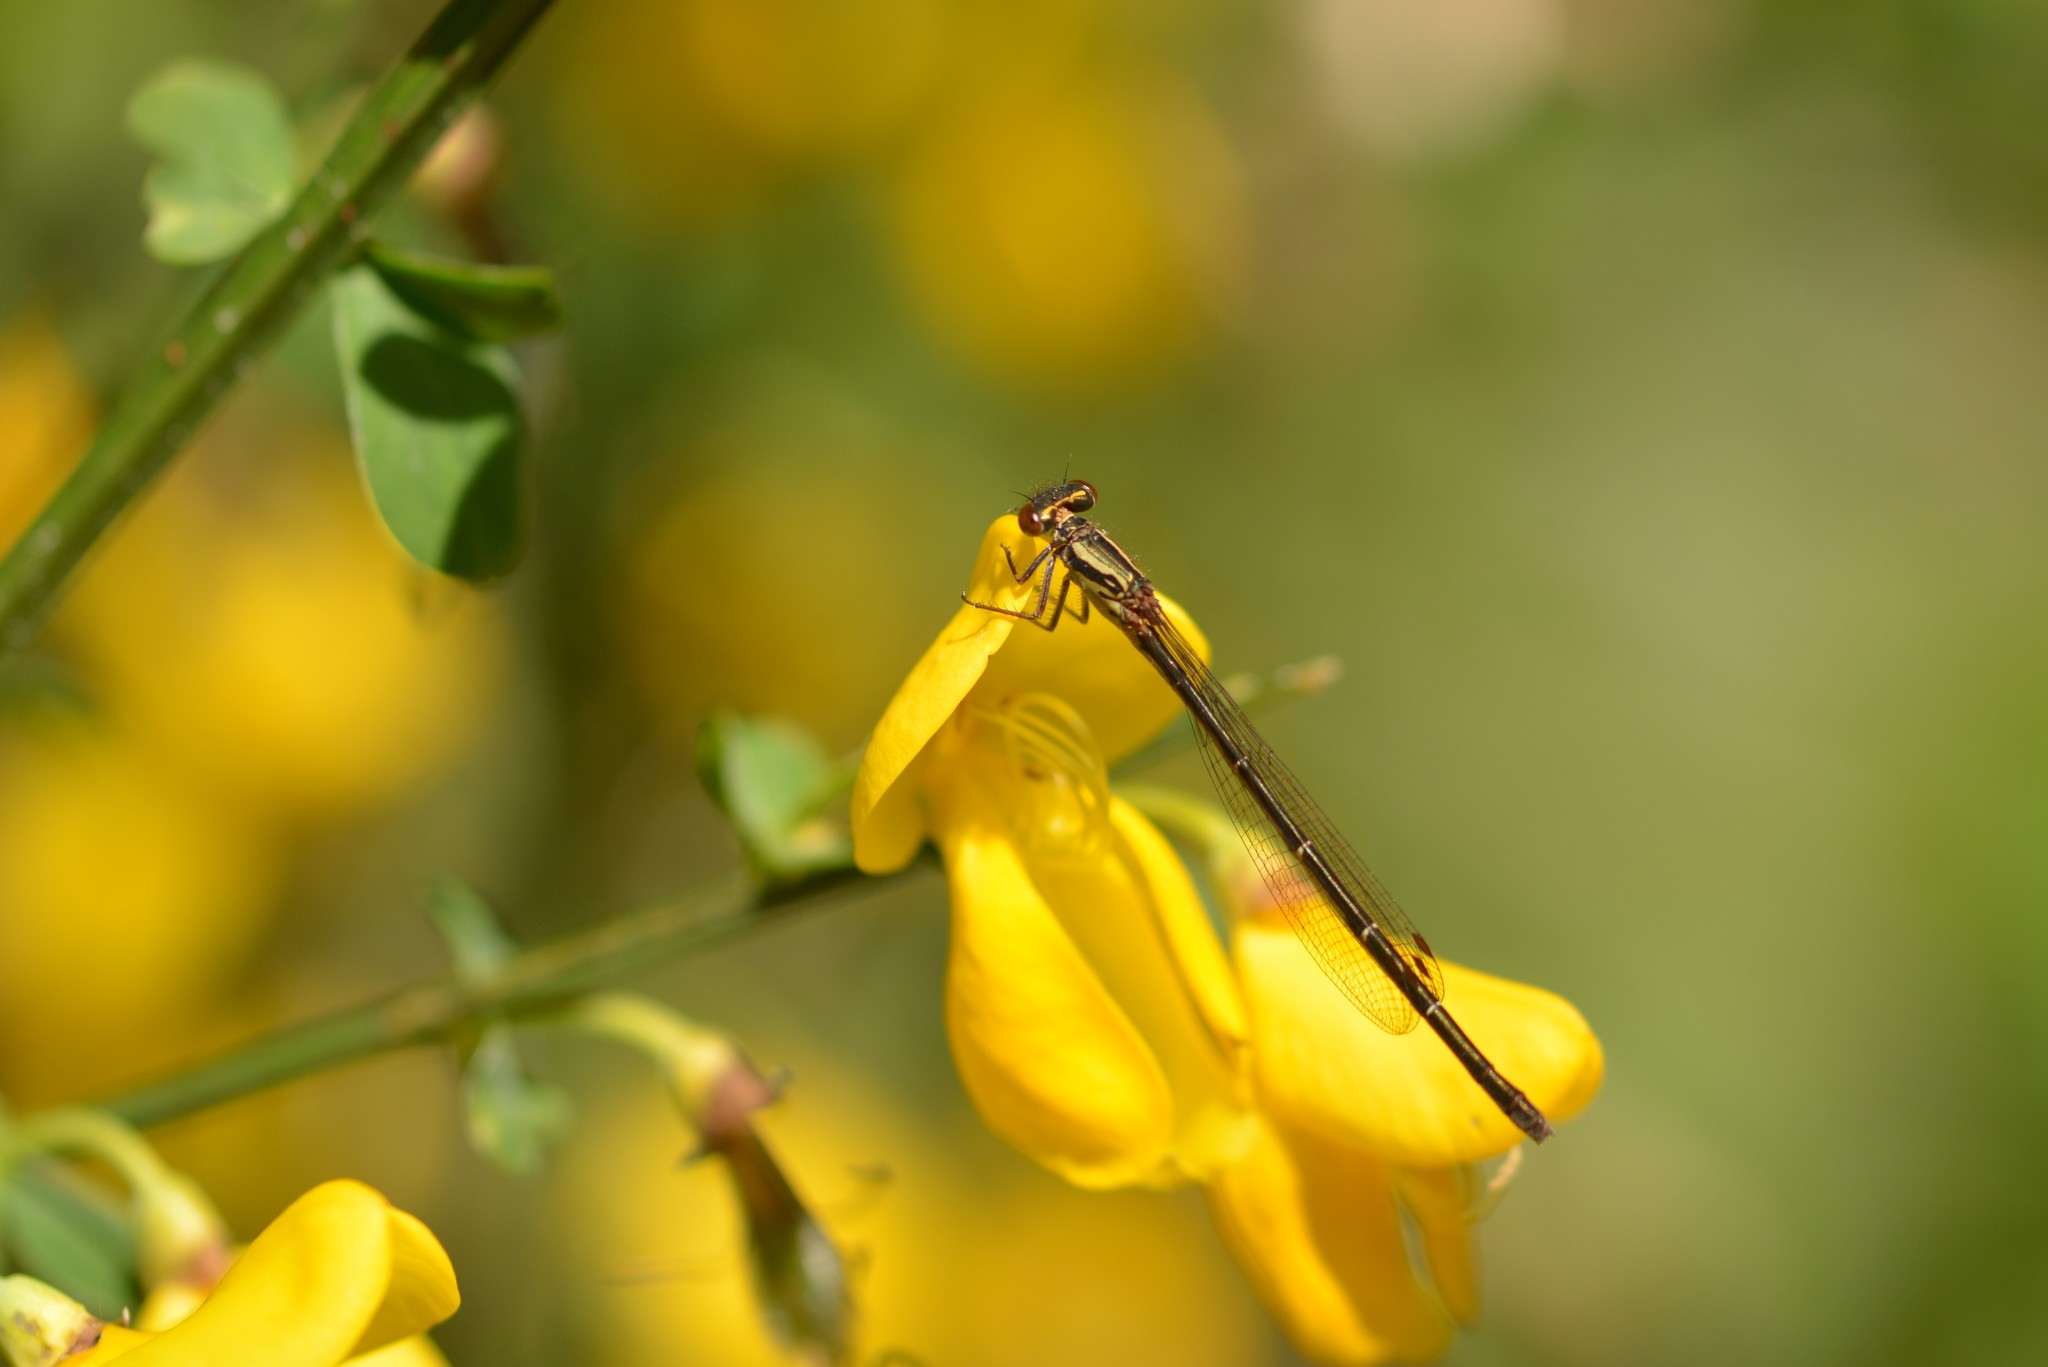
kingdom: Animalia
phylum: Arthropoda
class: Insecta
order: Odonata
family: Coenagrionidae
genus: Xanthocnemis
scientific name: Xanthocnemis zealandica
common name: Common redcoat damselfly
